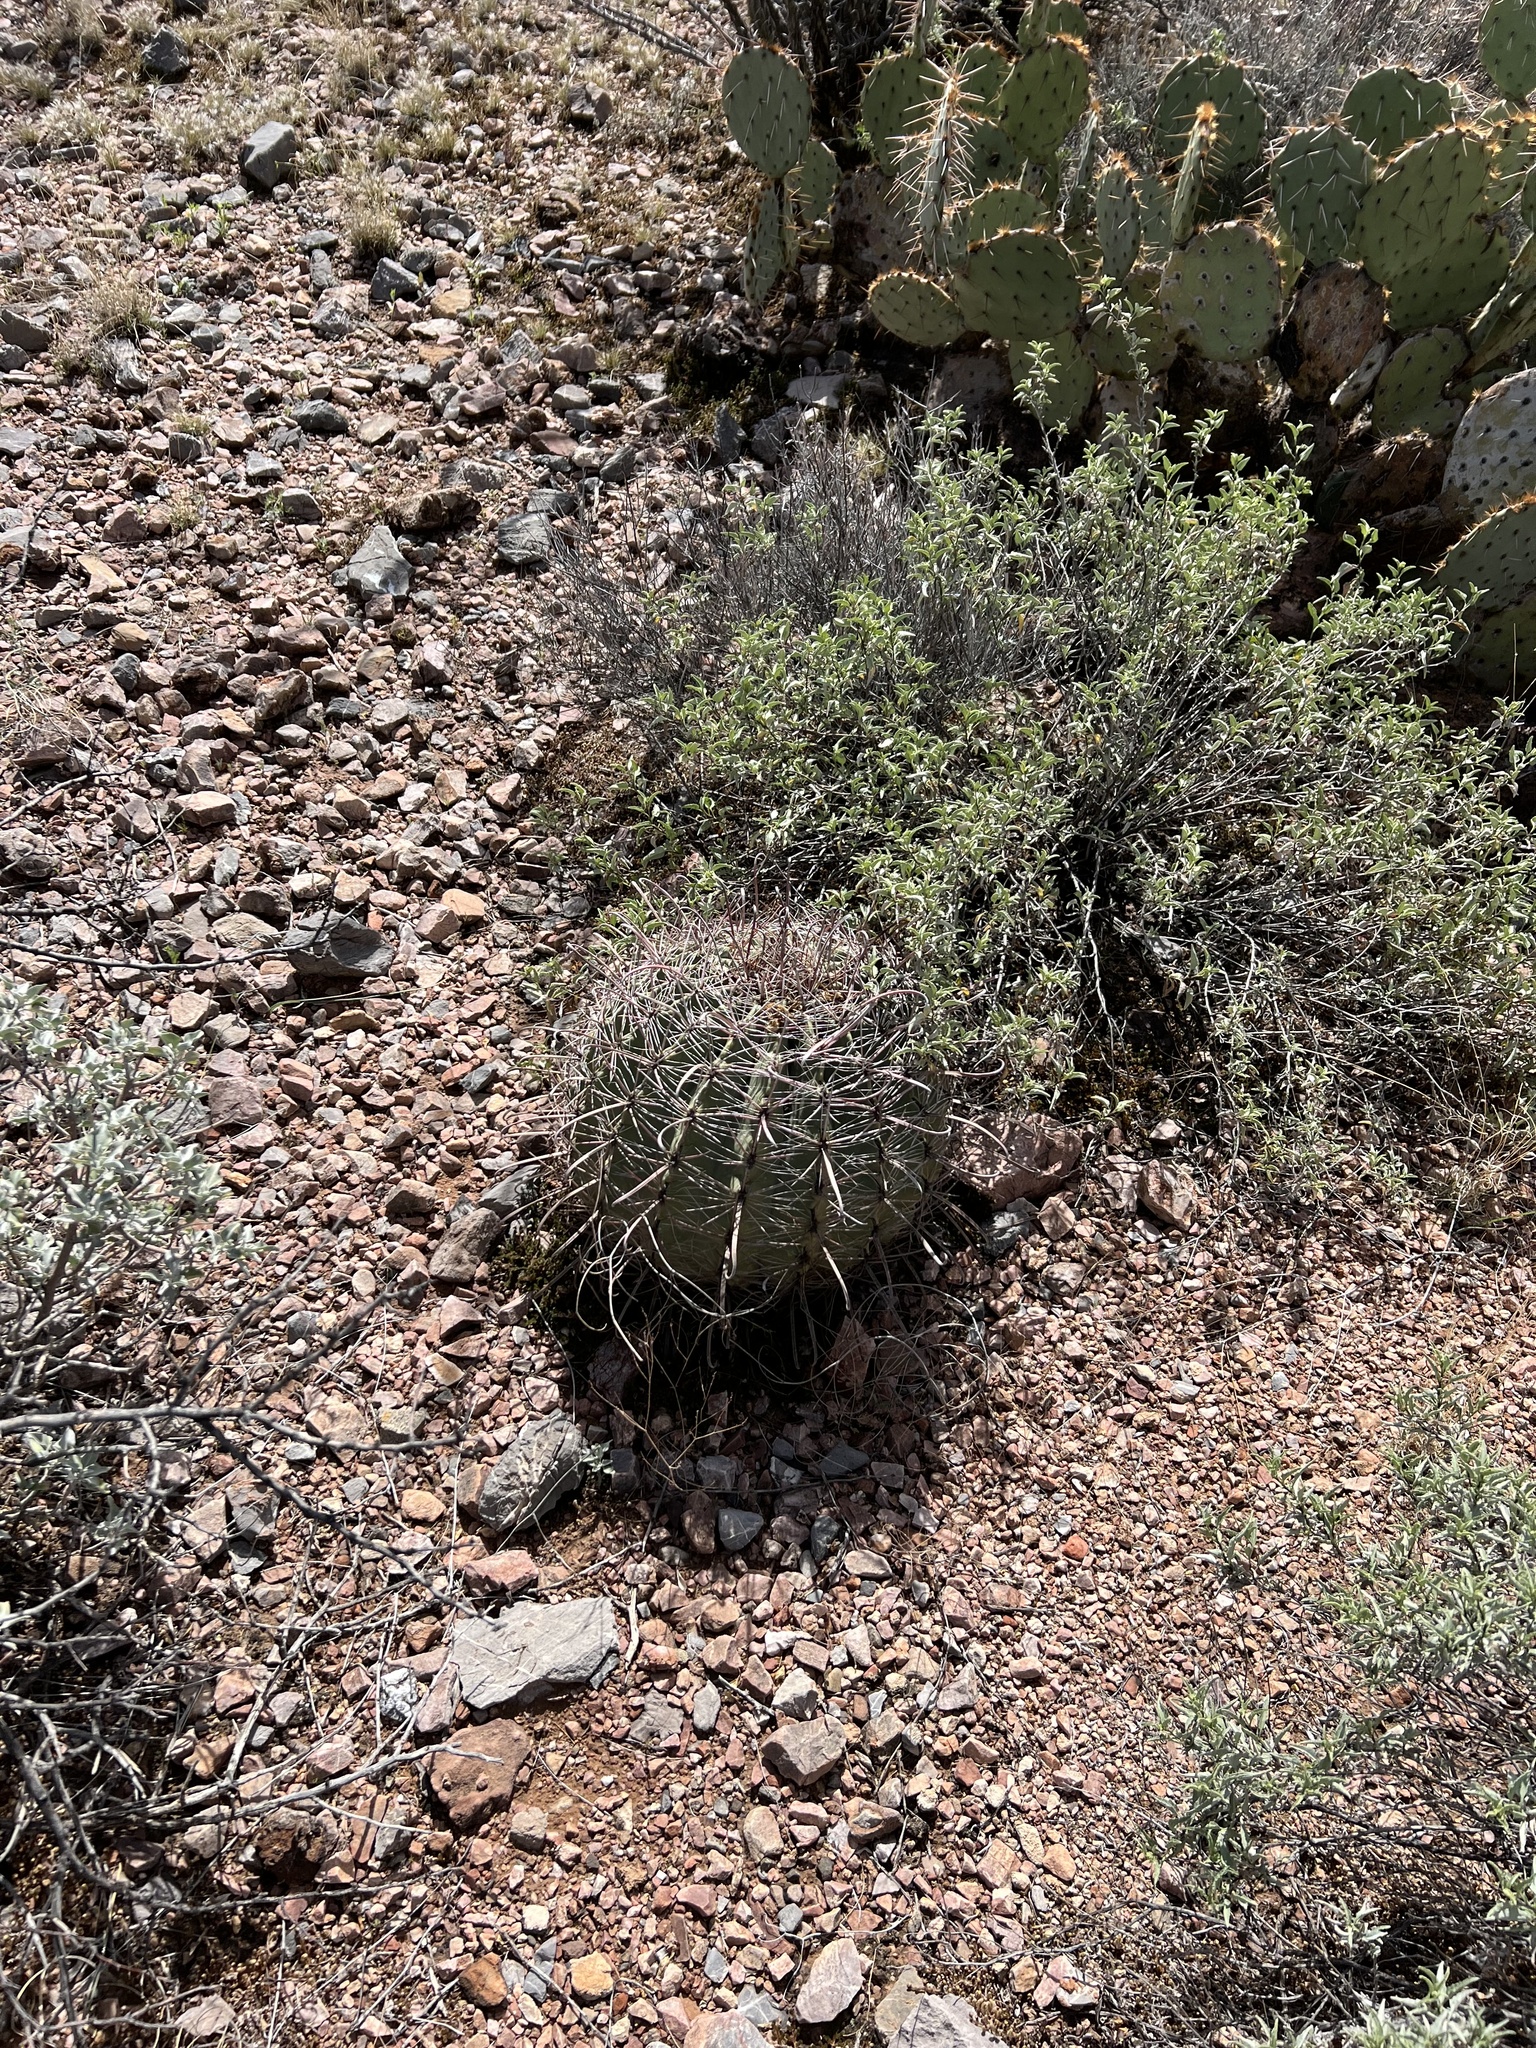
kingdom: Plantae
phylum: Tracheophyta
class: Magnoliopsida
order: Caryophyllales
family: Cactaceae
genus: Ferocactus
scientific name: Ferocactus wislizeni
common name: Candy barrel cactus
